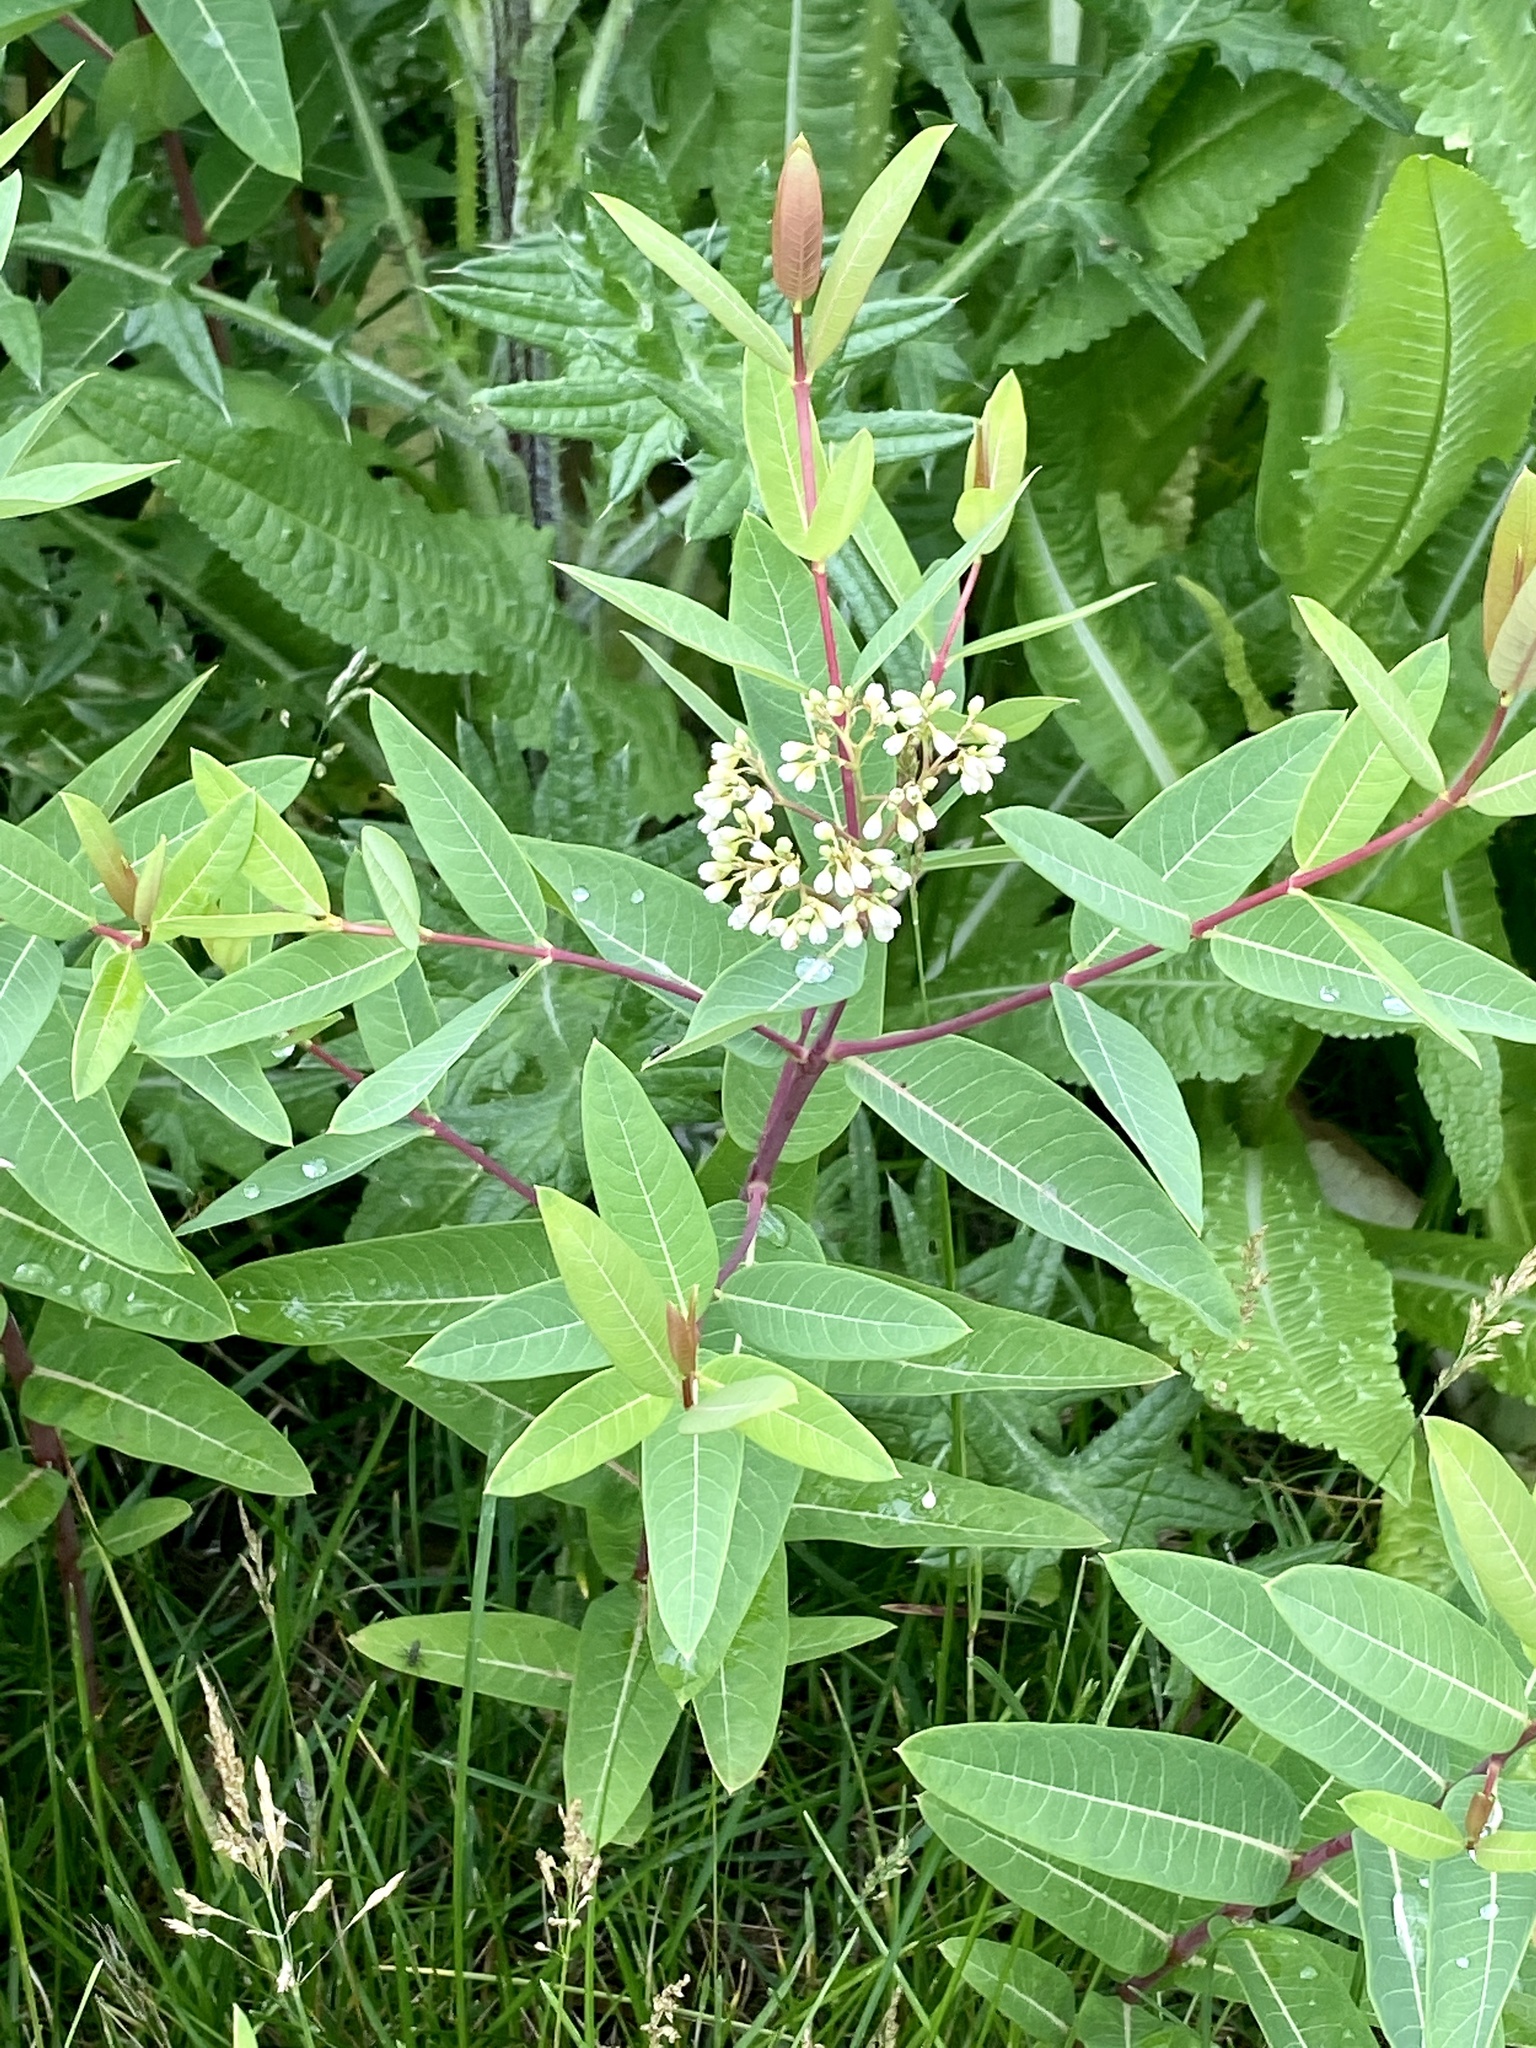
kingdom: Plantae
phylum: Tracheophyta
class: Magnoliopsida
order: Gentianales
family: Apocynaceae
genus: Apocynum
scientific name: Apocynum cannabinum
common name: Hemp dogbane
